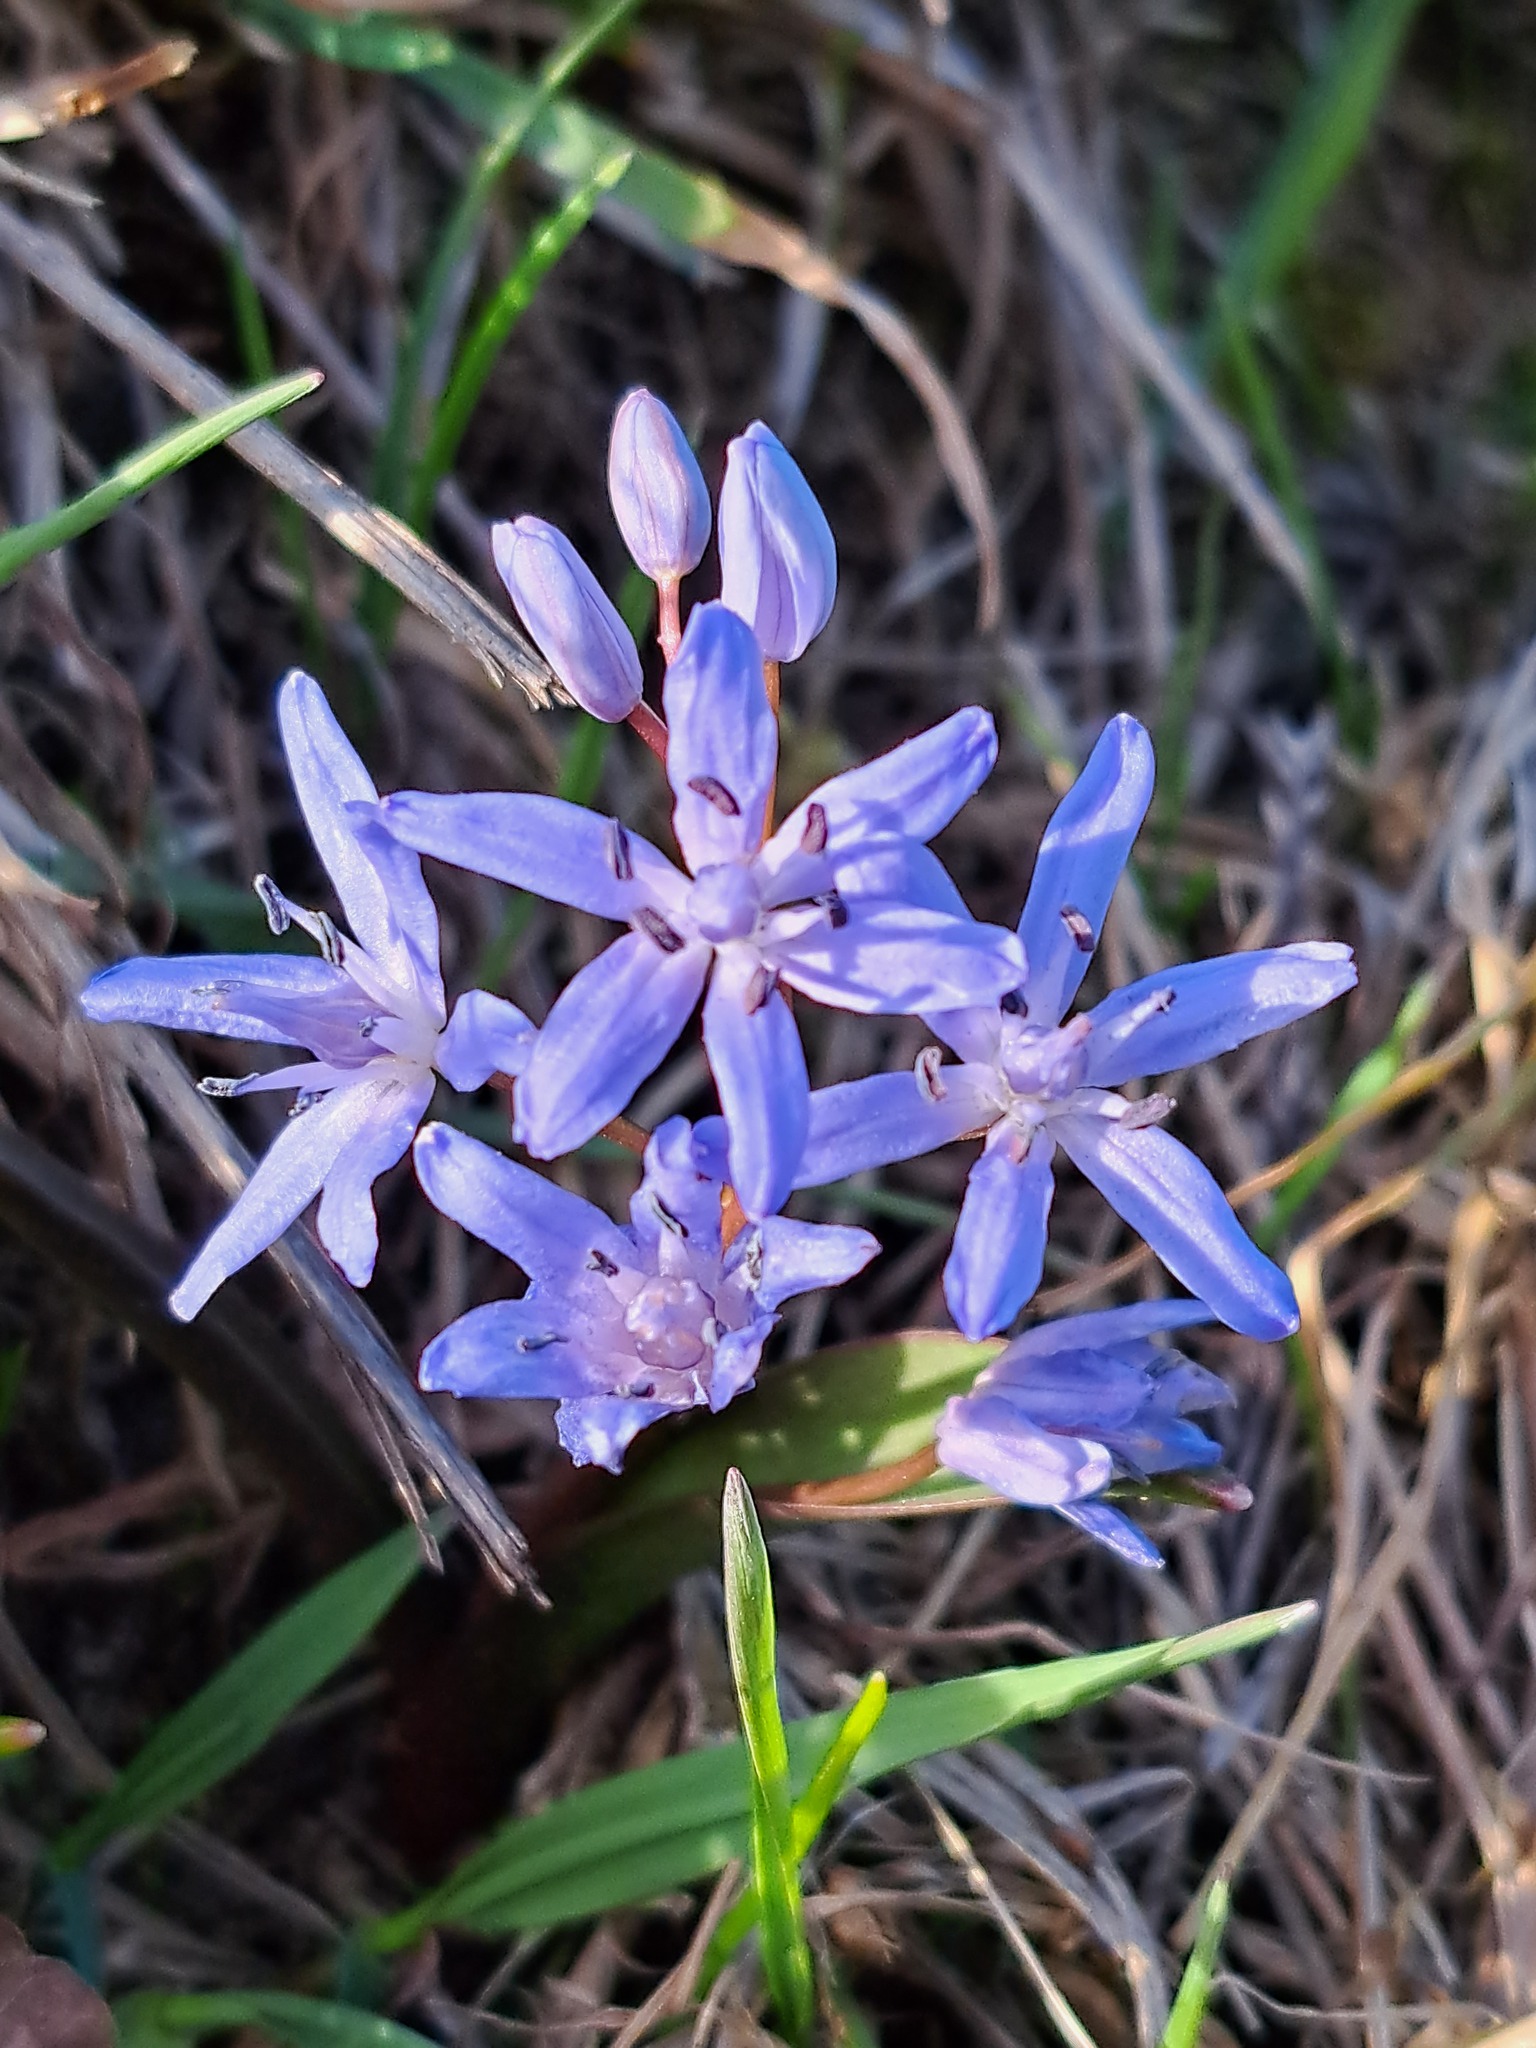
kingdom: Plantae
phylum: Tracheophyta
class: Liliopsida
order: Asparagales
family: Asparagaceae
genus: Scilla
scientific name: Scilla bifolia
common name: Alpine squill
